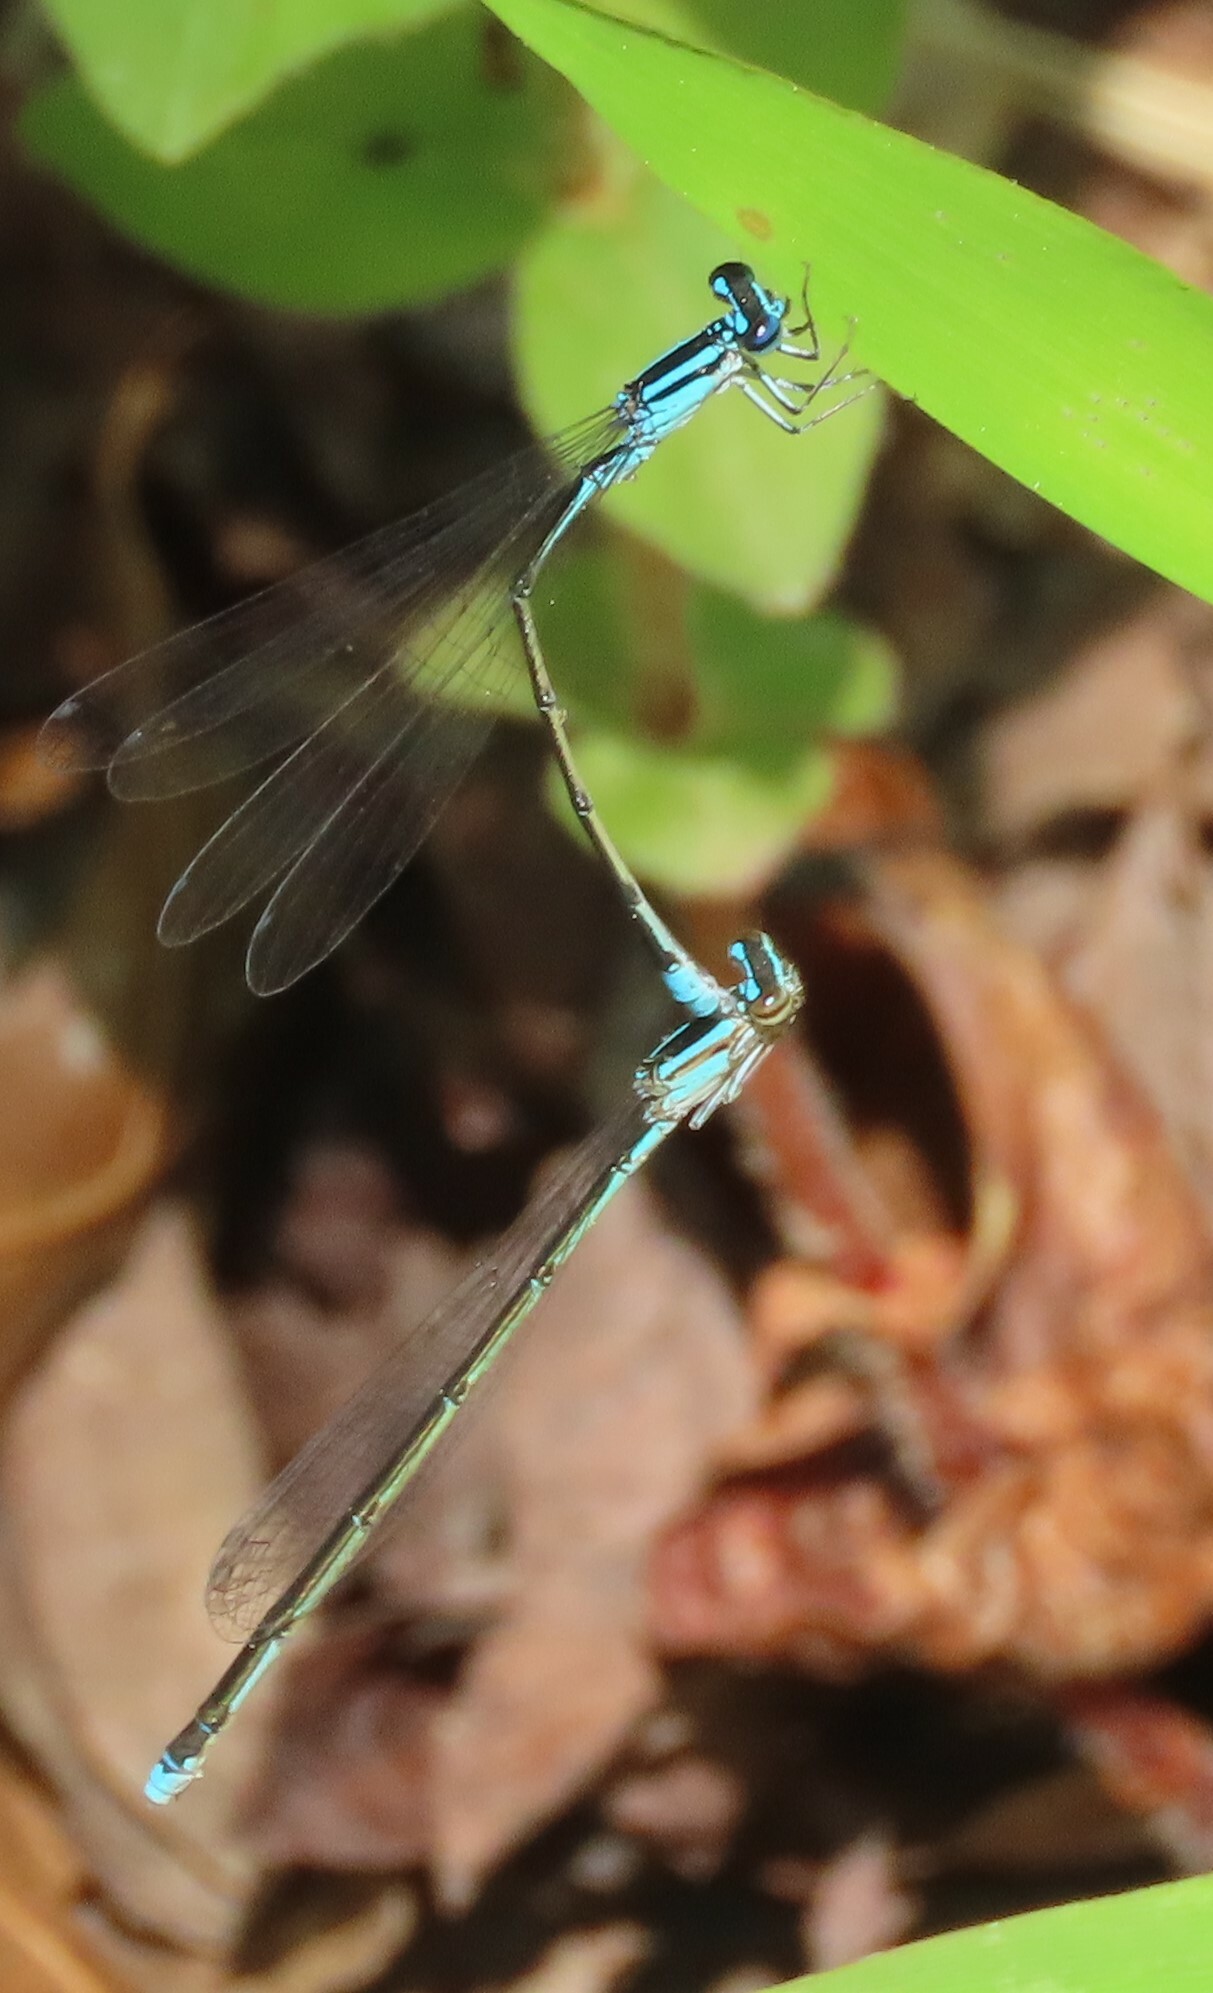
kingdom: Animalia
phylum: Arthropoda
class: Insecta
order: Odonata
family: Coenagrionidae
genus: Enallagma
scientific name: Enallagma divagans
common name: Turquoise bluet
